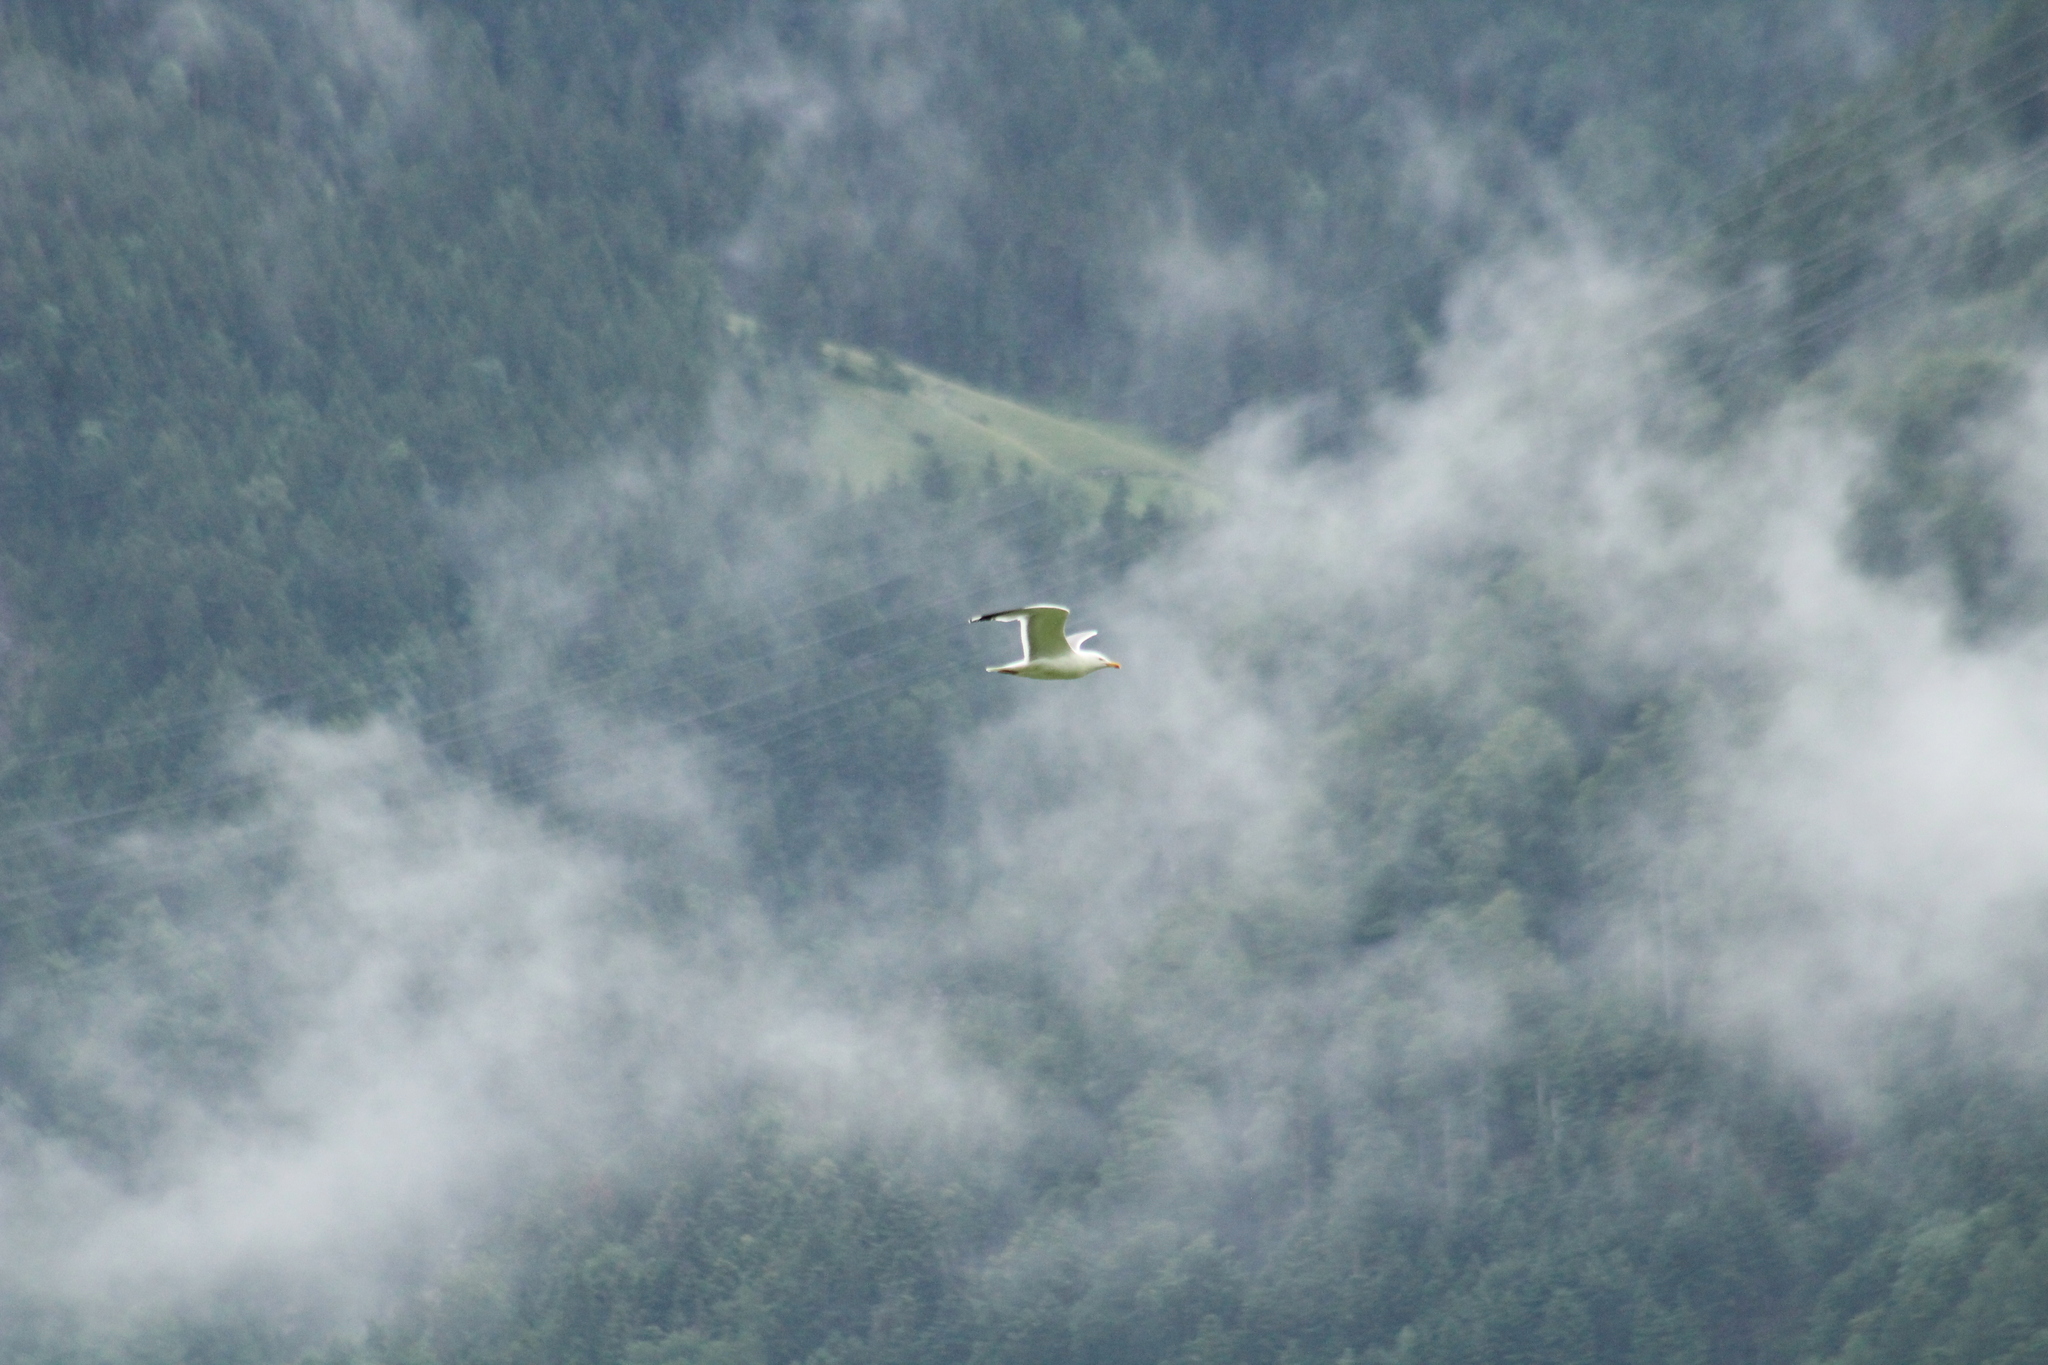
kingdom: Animalia
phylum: Chordata
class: Aves
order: Charadriiformes
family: Laridae
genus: Larus
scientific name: Larus michahellis
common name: Yellow-legged gull
